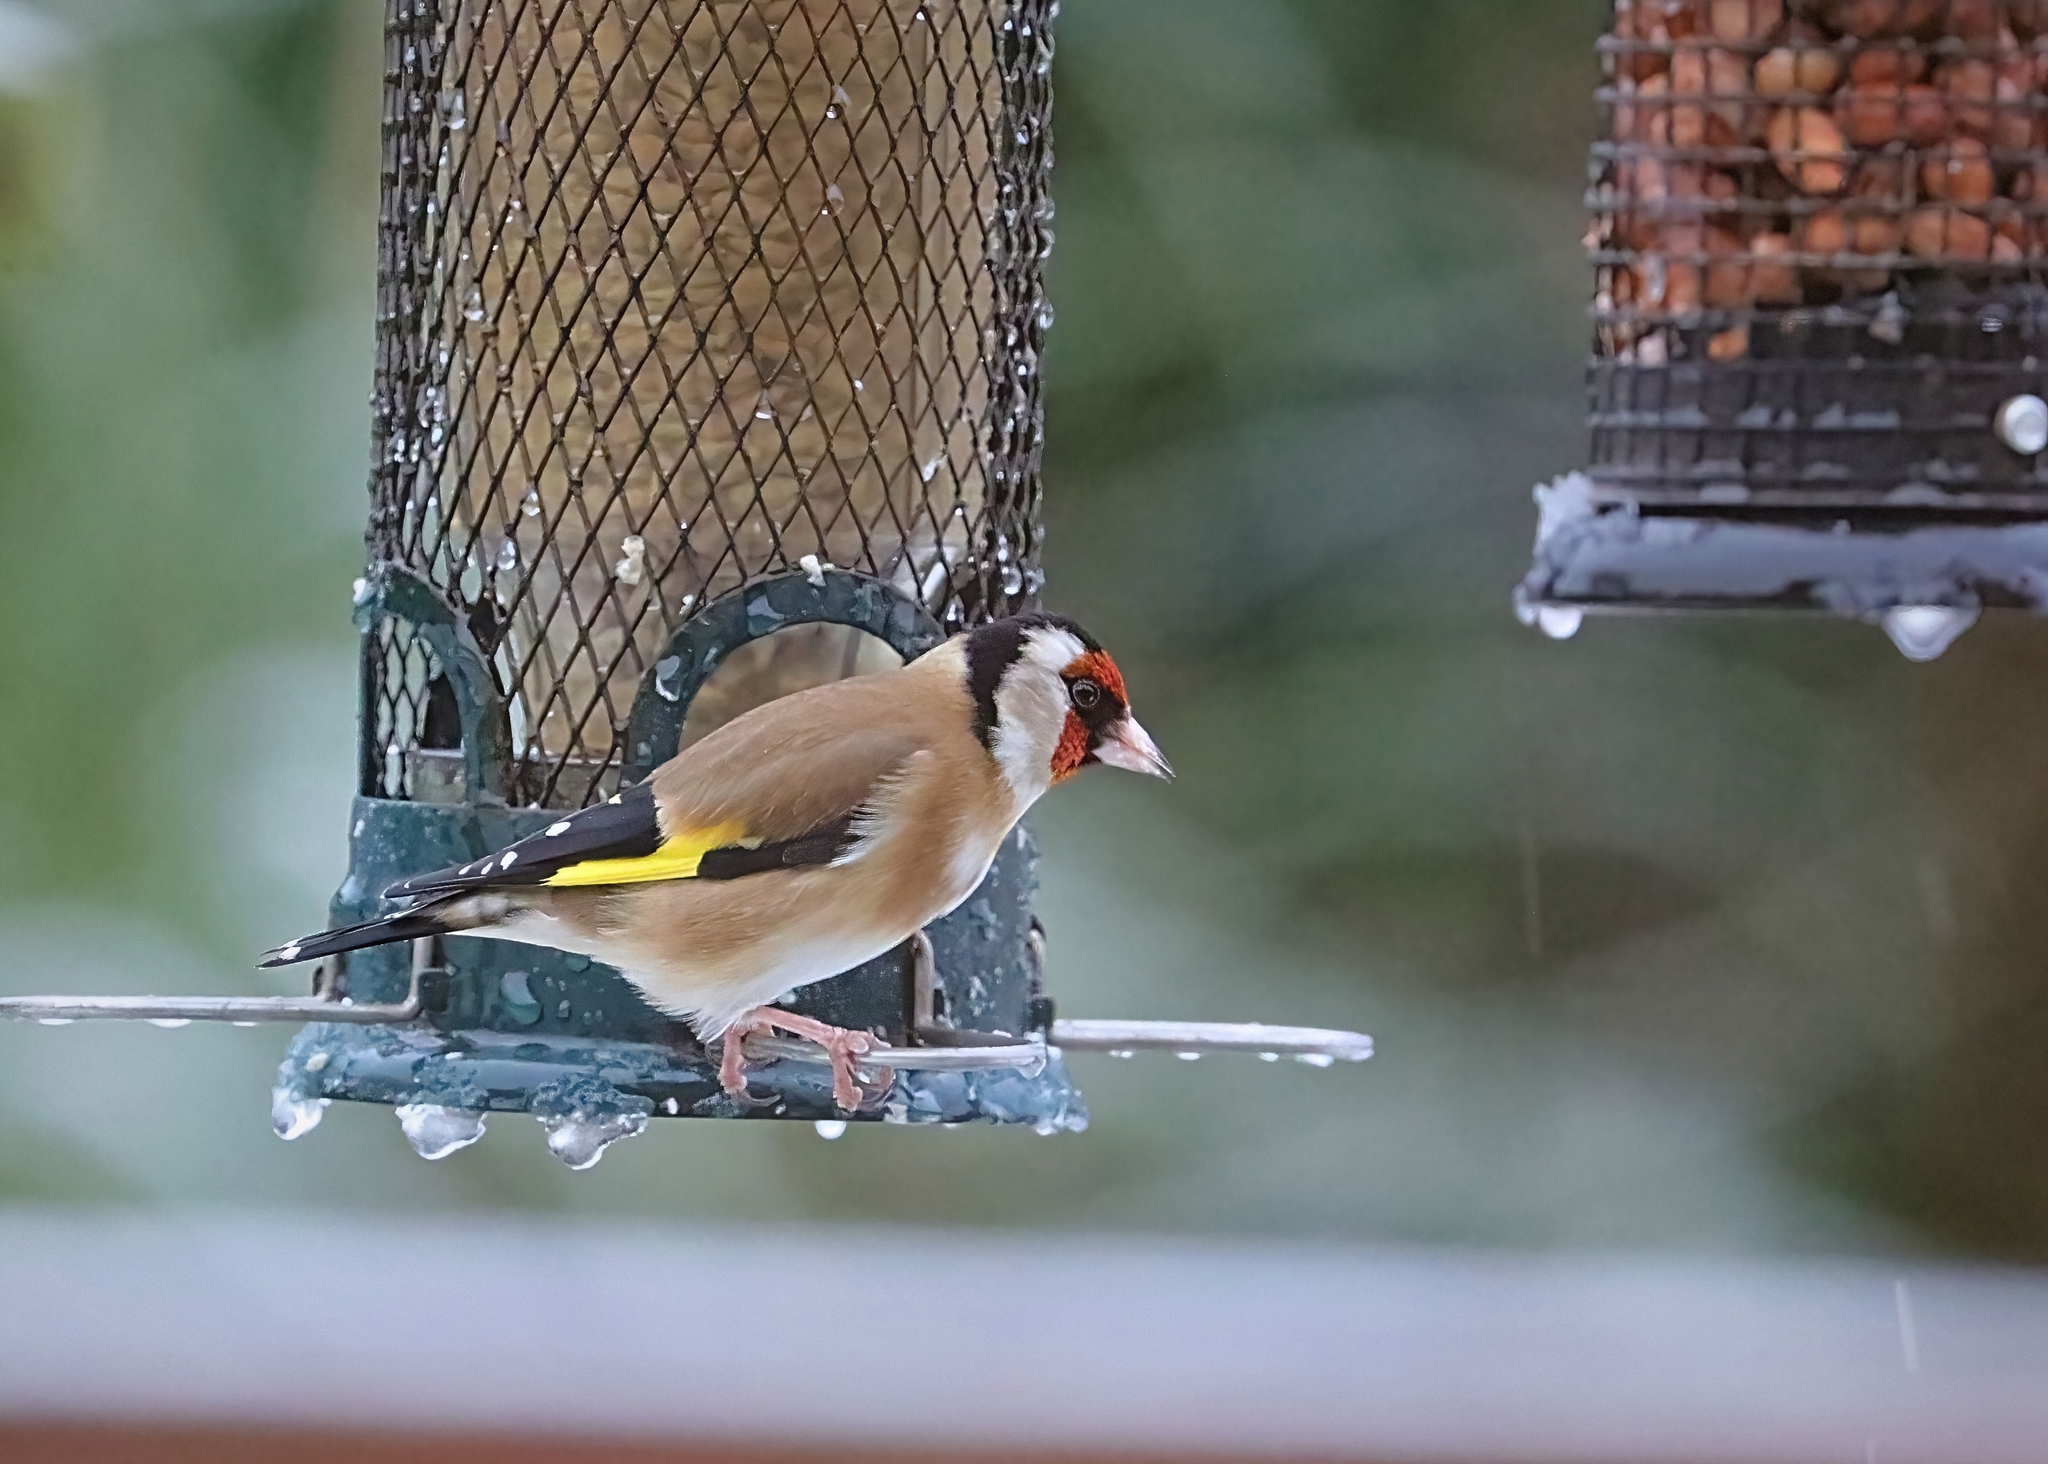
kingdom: Animalia
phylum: Chordata
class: Aves
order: Passeriformes
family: Fringillidae
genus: Carduelis
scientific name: Carduelis carduelis
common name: European goldfinch
